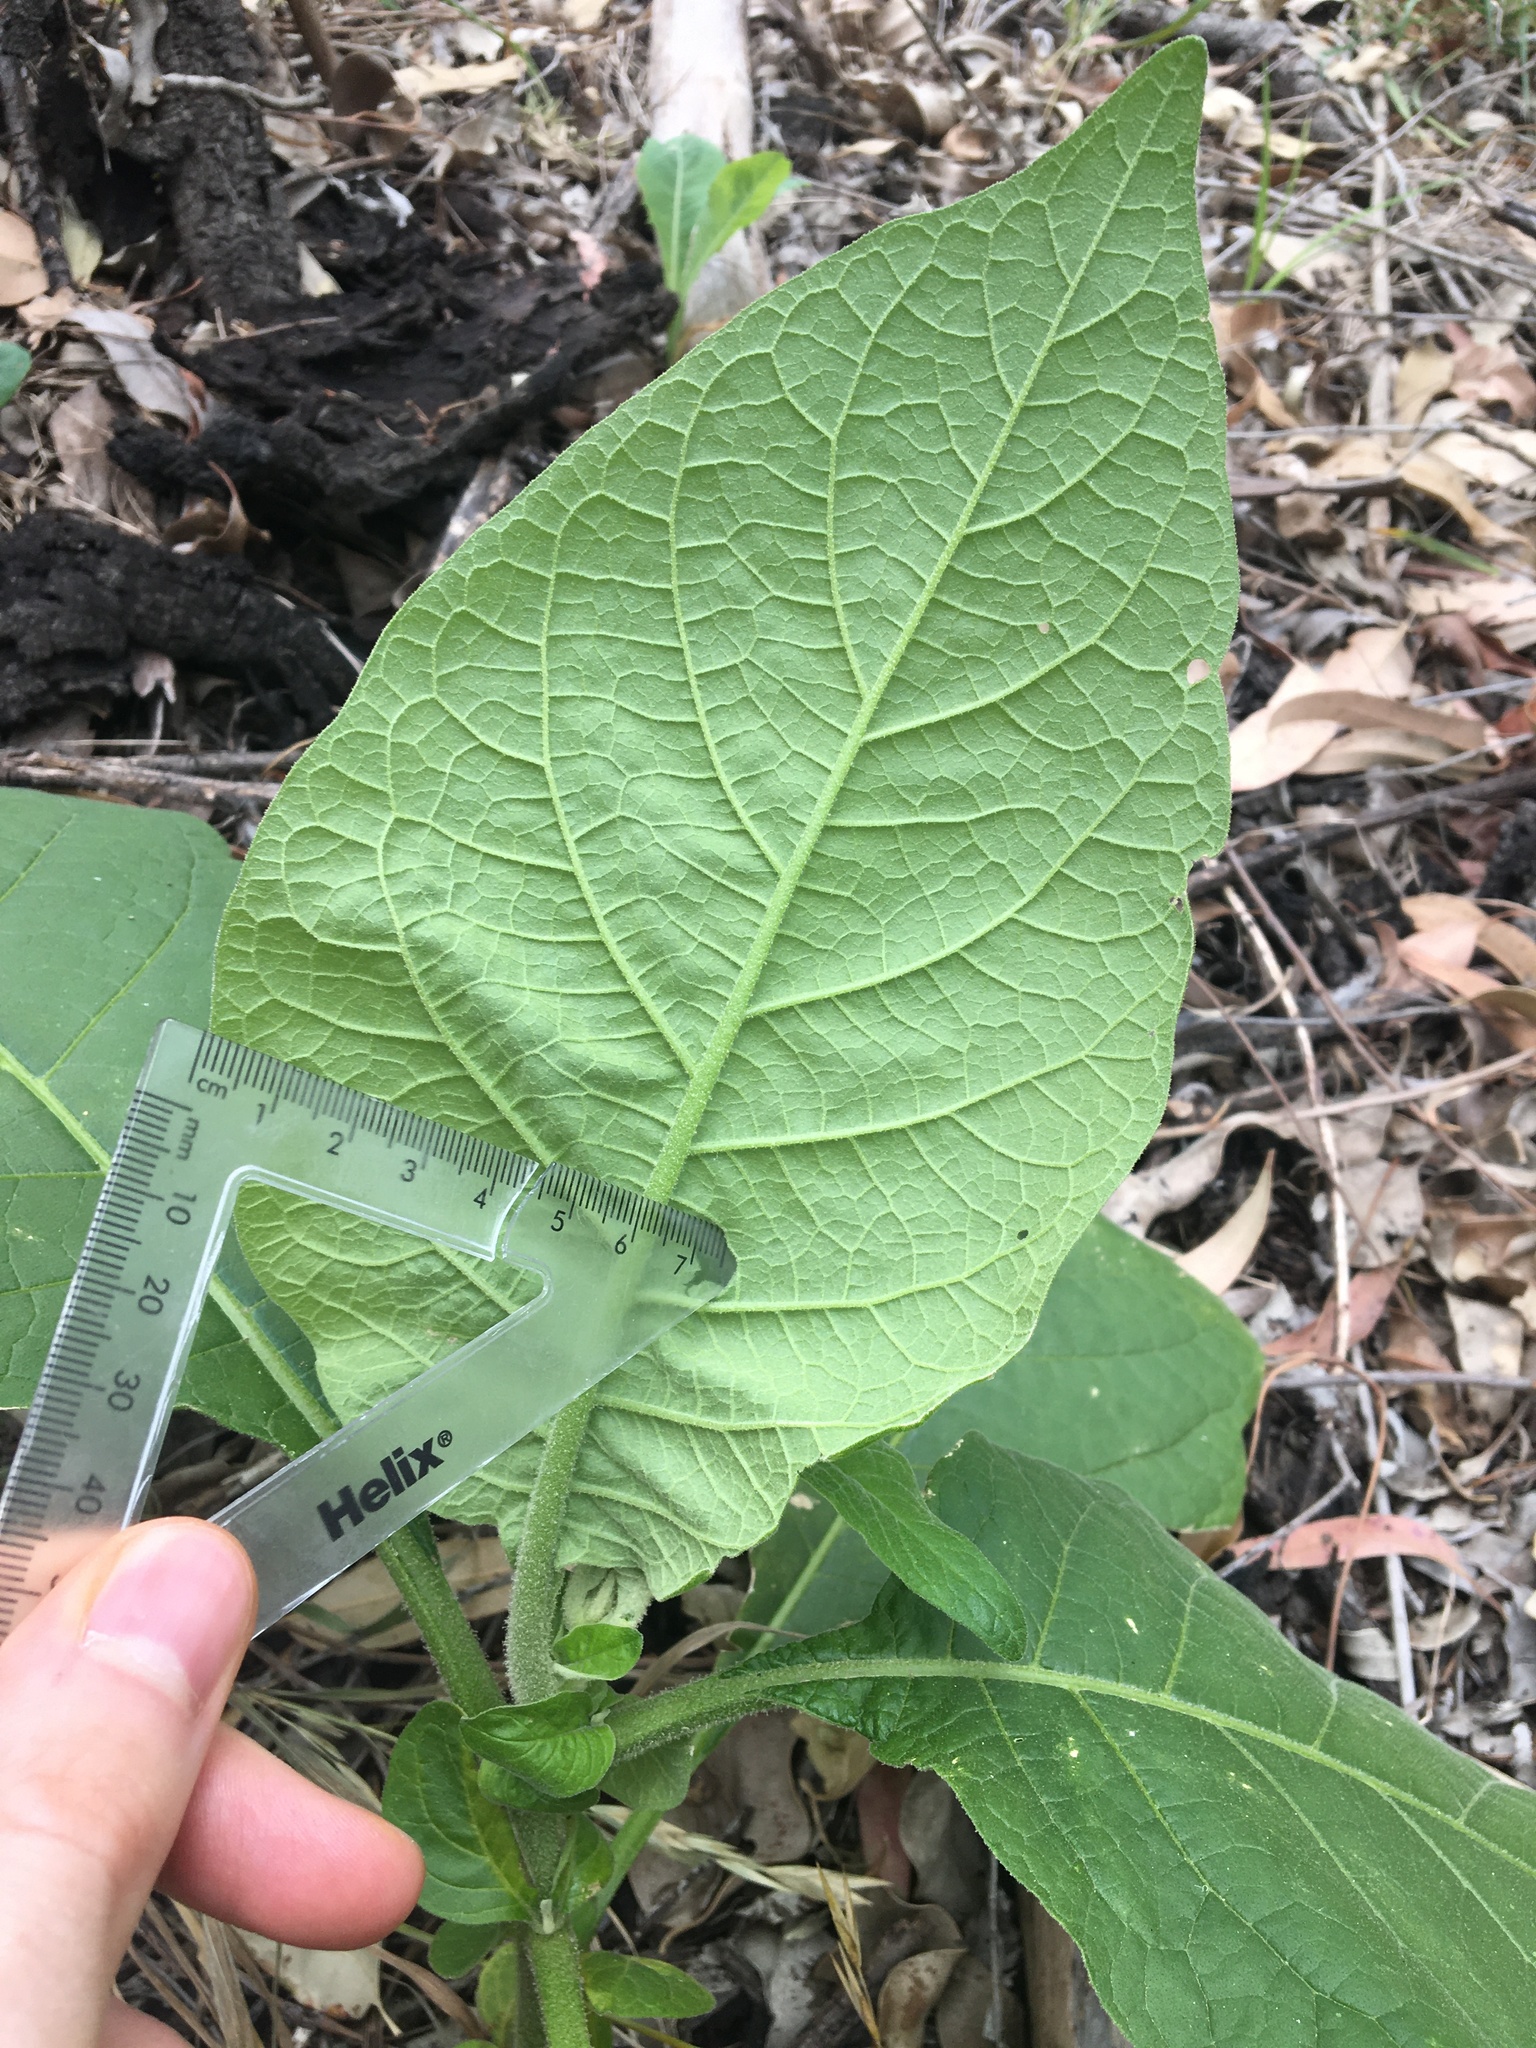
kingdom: Plantae
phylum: Tracheophyta
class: Magnoliopsida
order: Solanales
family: Solanaceae
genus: Solanum
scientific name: Solanum mauritianum
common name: Earleaf nightshade
